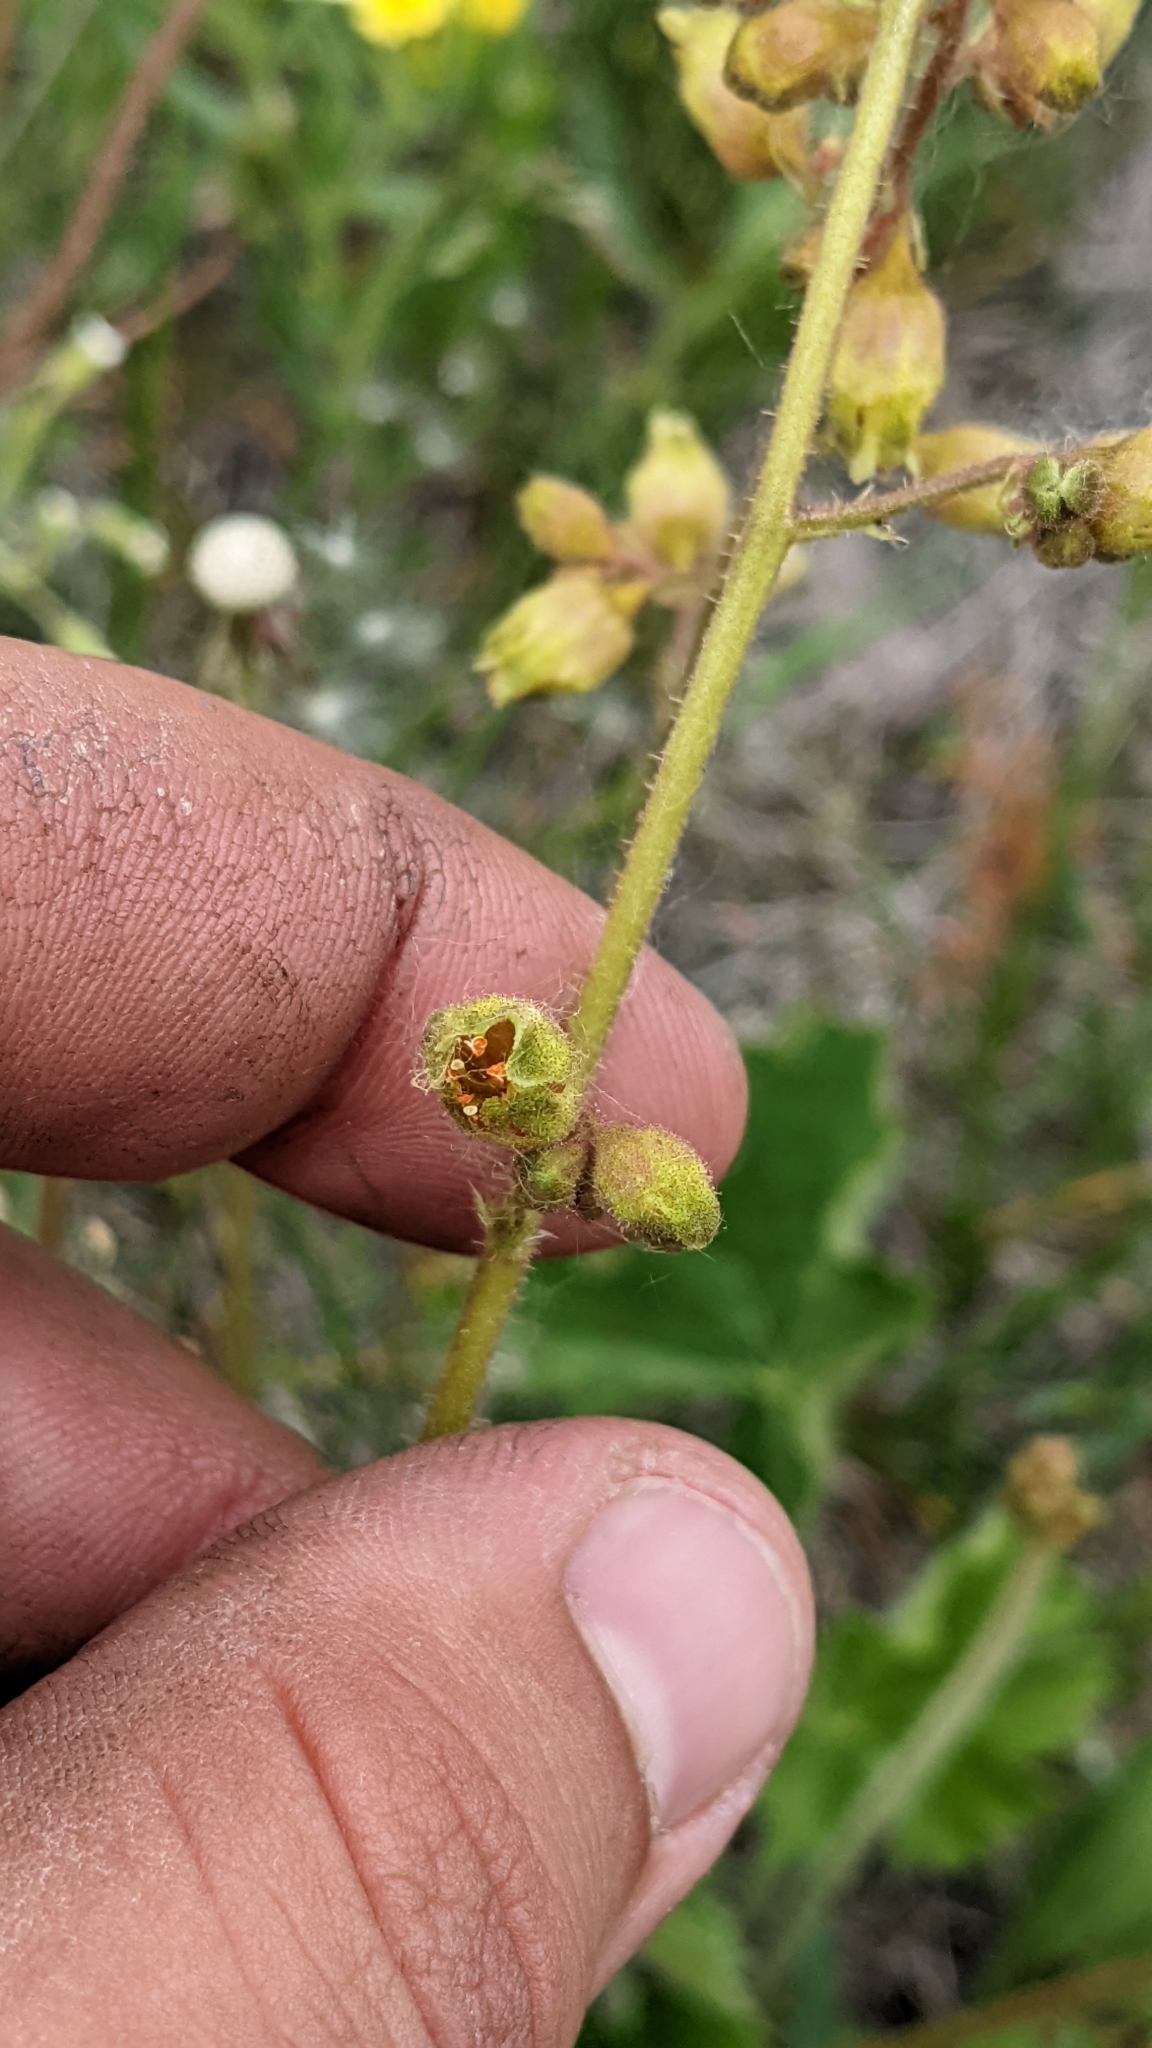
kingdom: Plantae
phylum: Tracheophyta
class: Magnoliopsida
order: Saxifragales
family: Saxifragaceae
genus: Heuchera
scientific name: Heuchera richardsonii
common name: Richardson's alumroot
